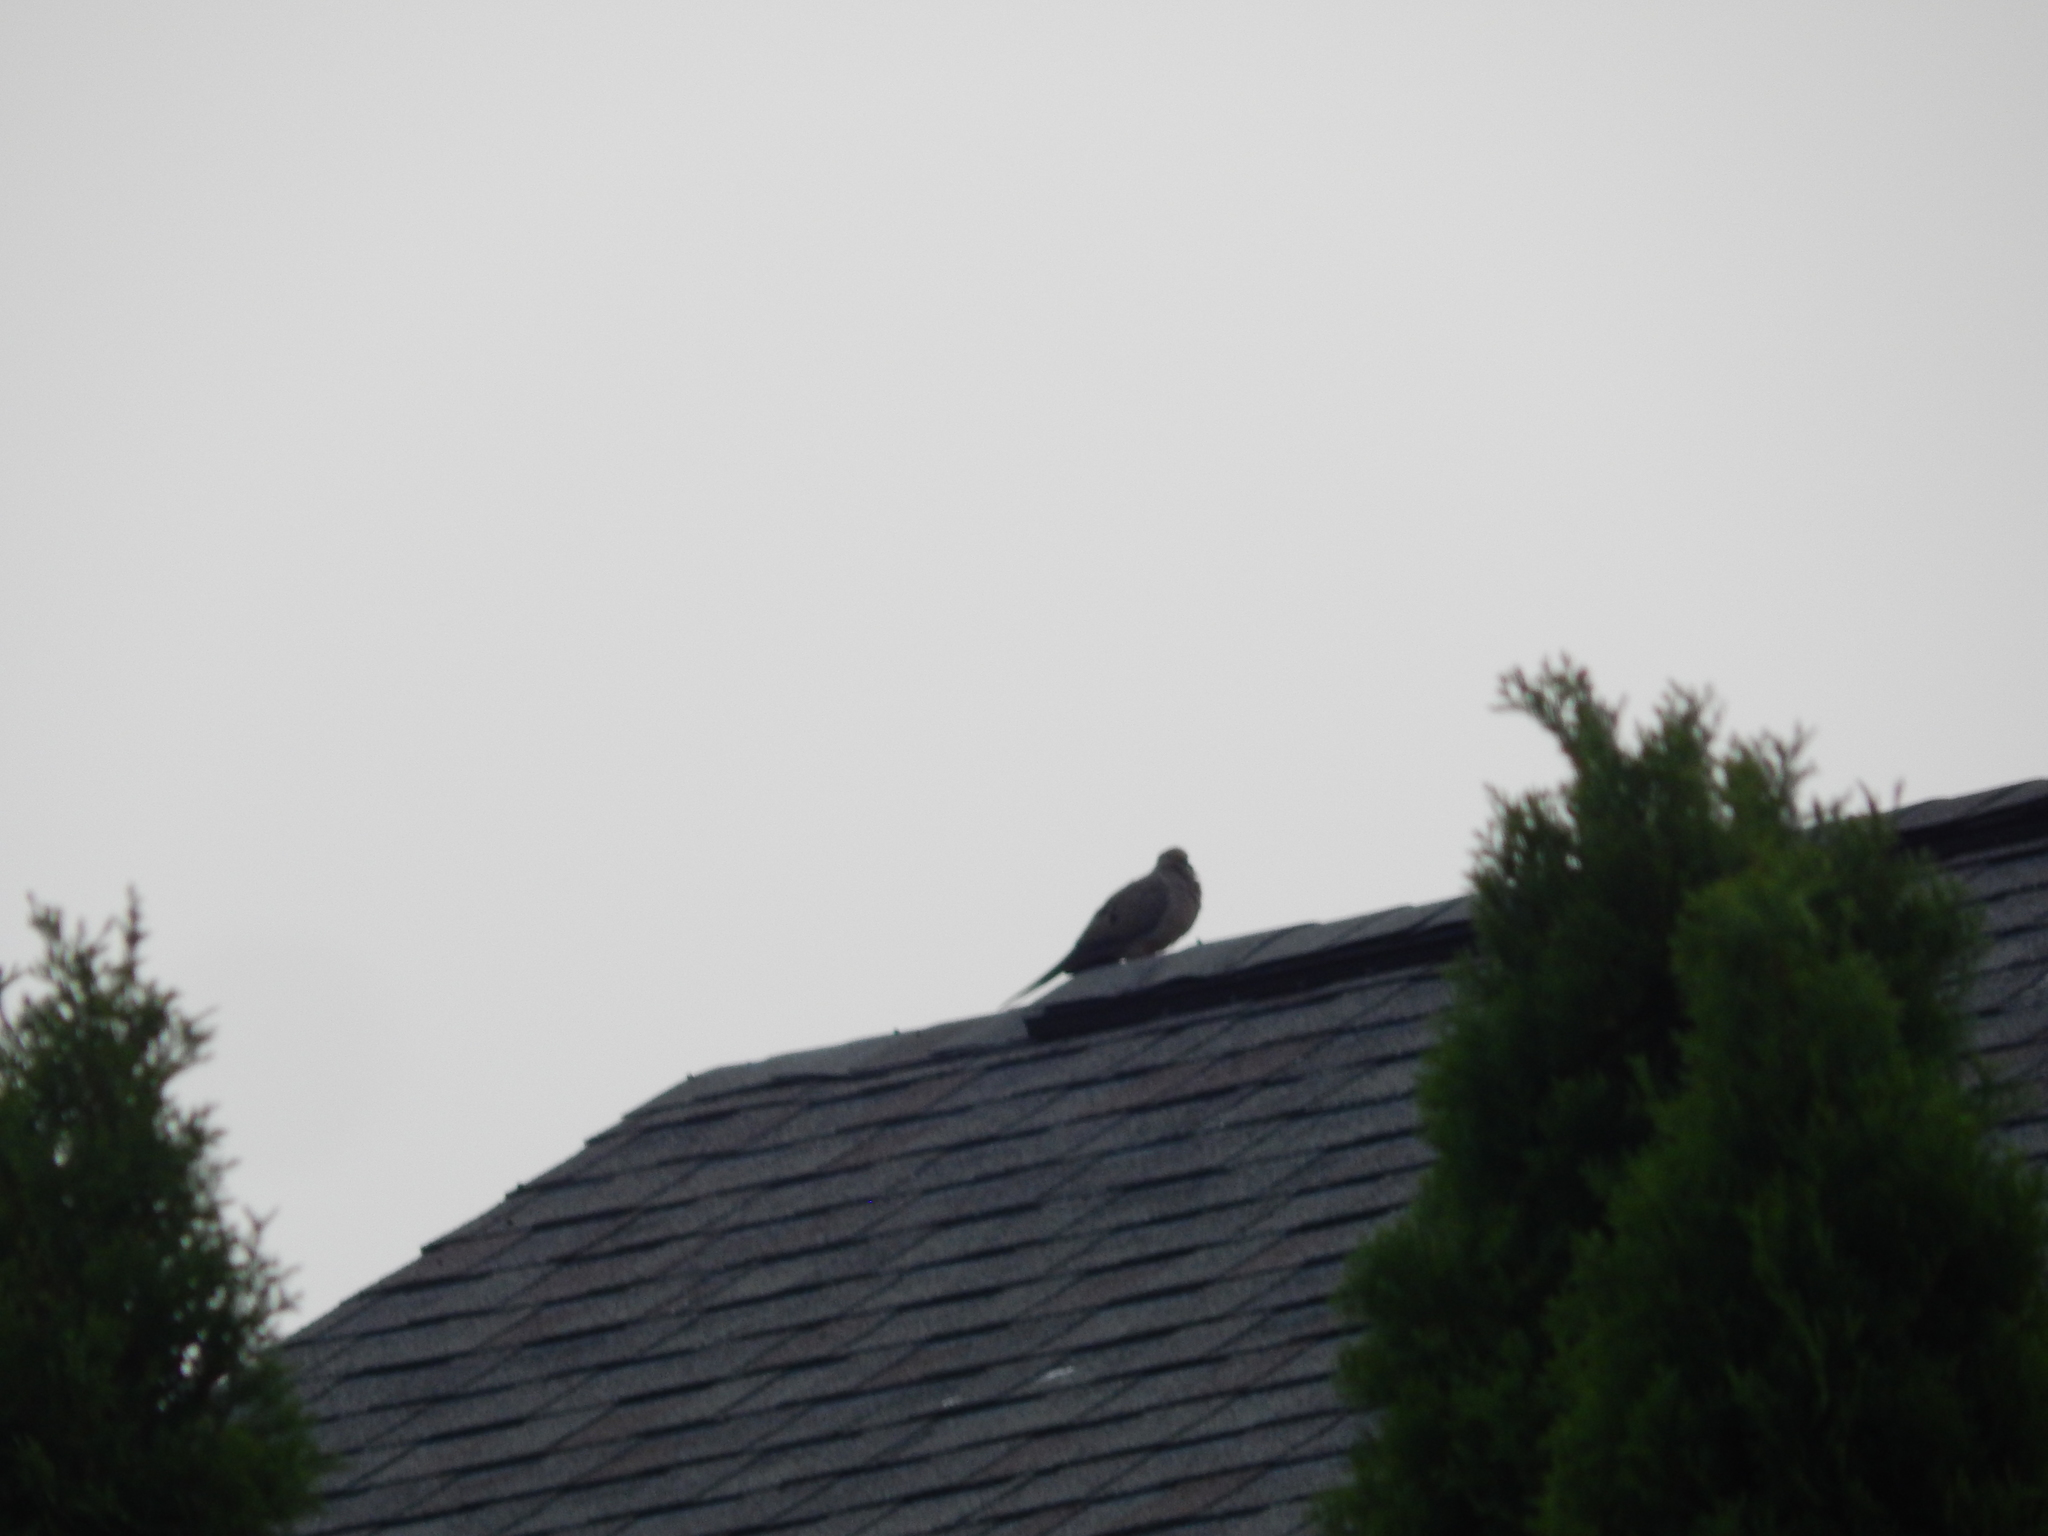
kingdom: Animalia
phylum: Chordata
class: Aves
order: Columbiformes
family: Columbidae
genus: Zenaida
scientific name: Zenaida macroura
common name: Mourning dove
